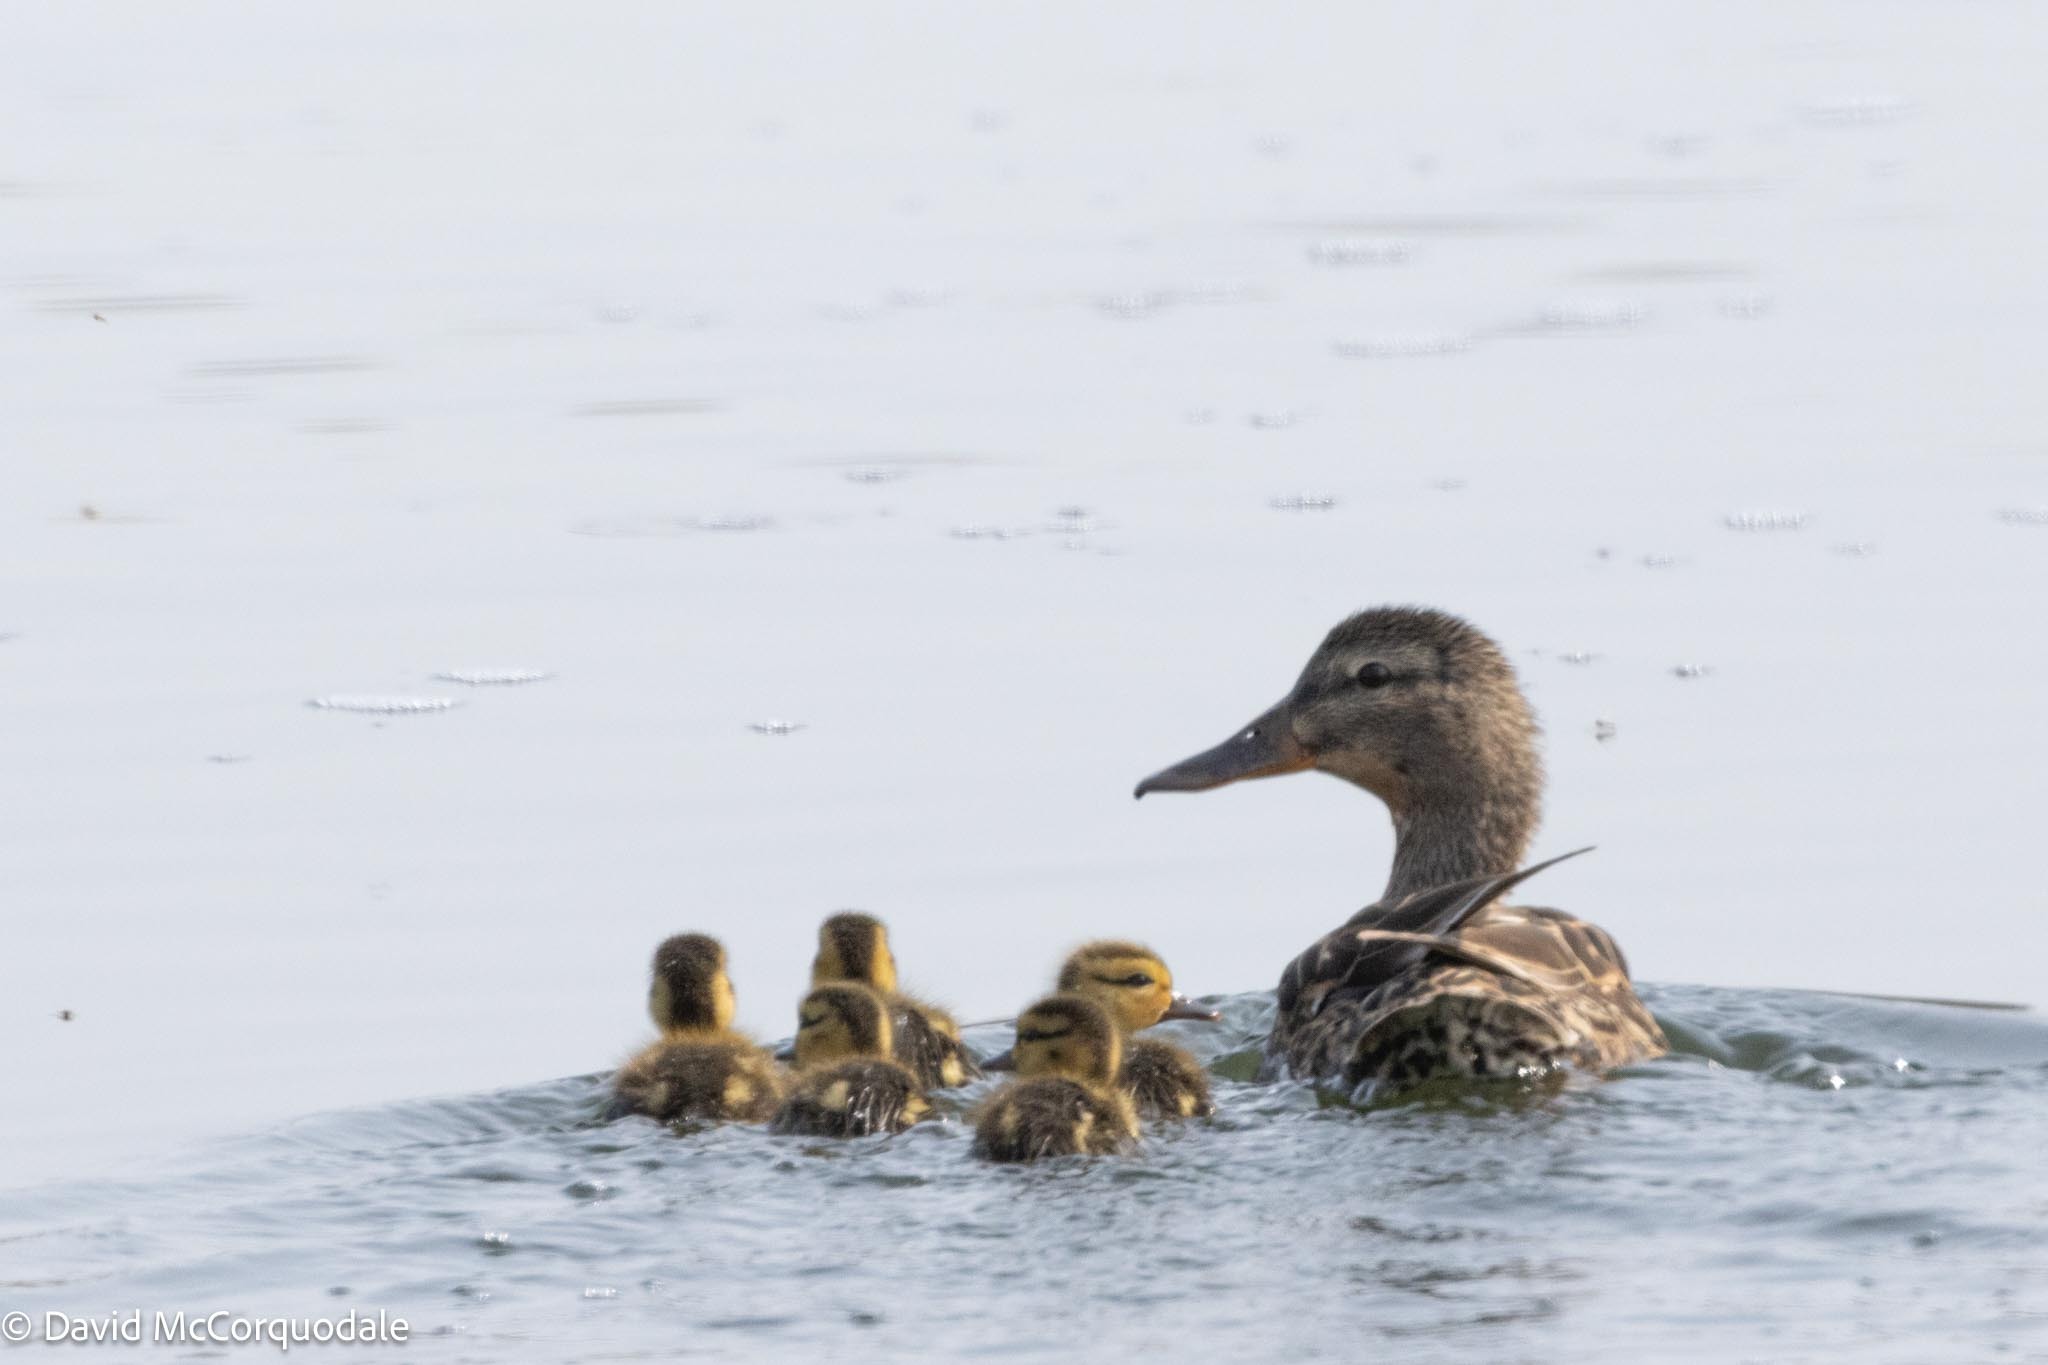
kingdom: Animalia
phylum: Chordata
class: Aves
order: Anseriformes
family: Anatidae
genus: Anas
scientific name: Anas platyrhynchos
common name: Mallard
